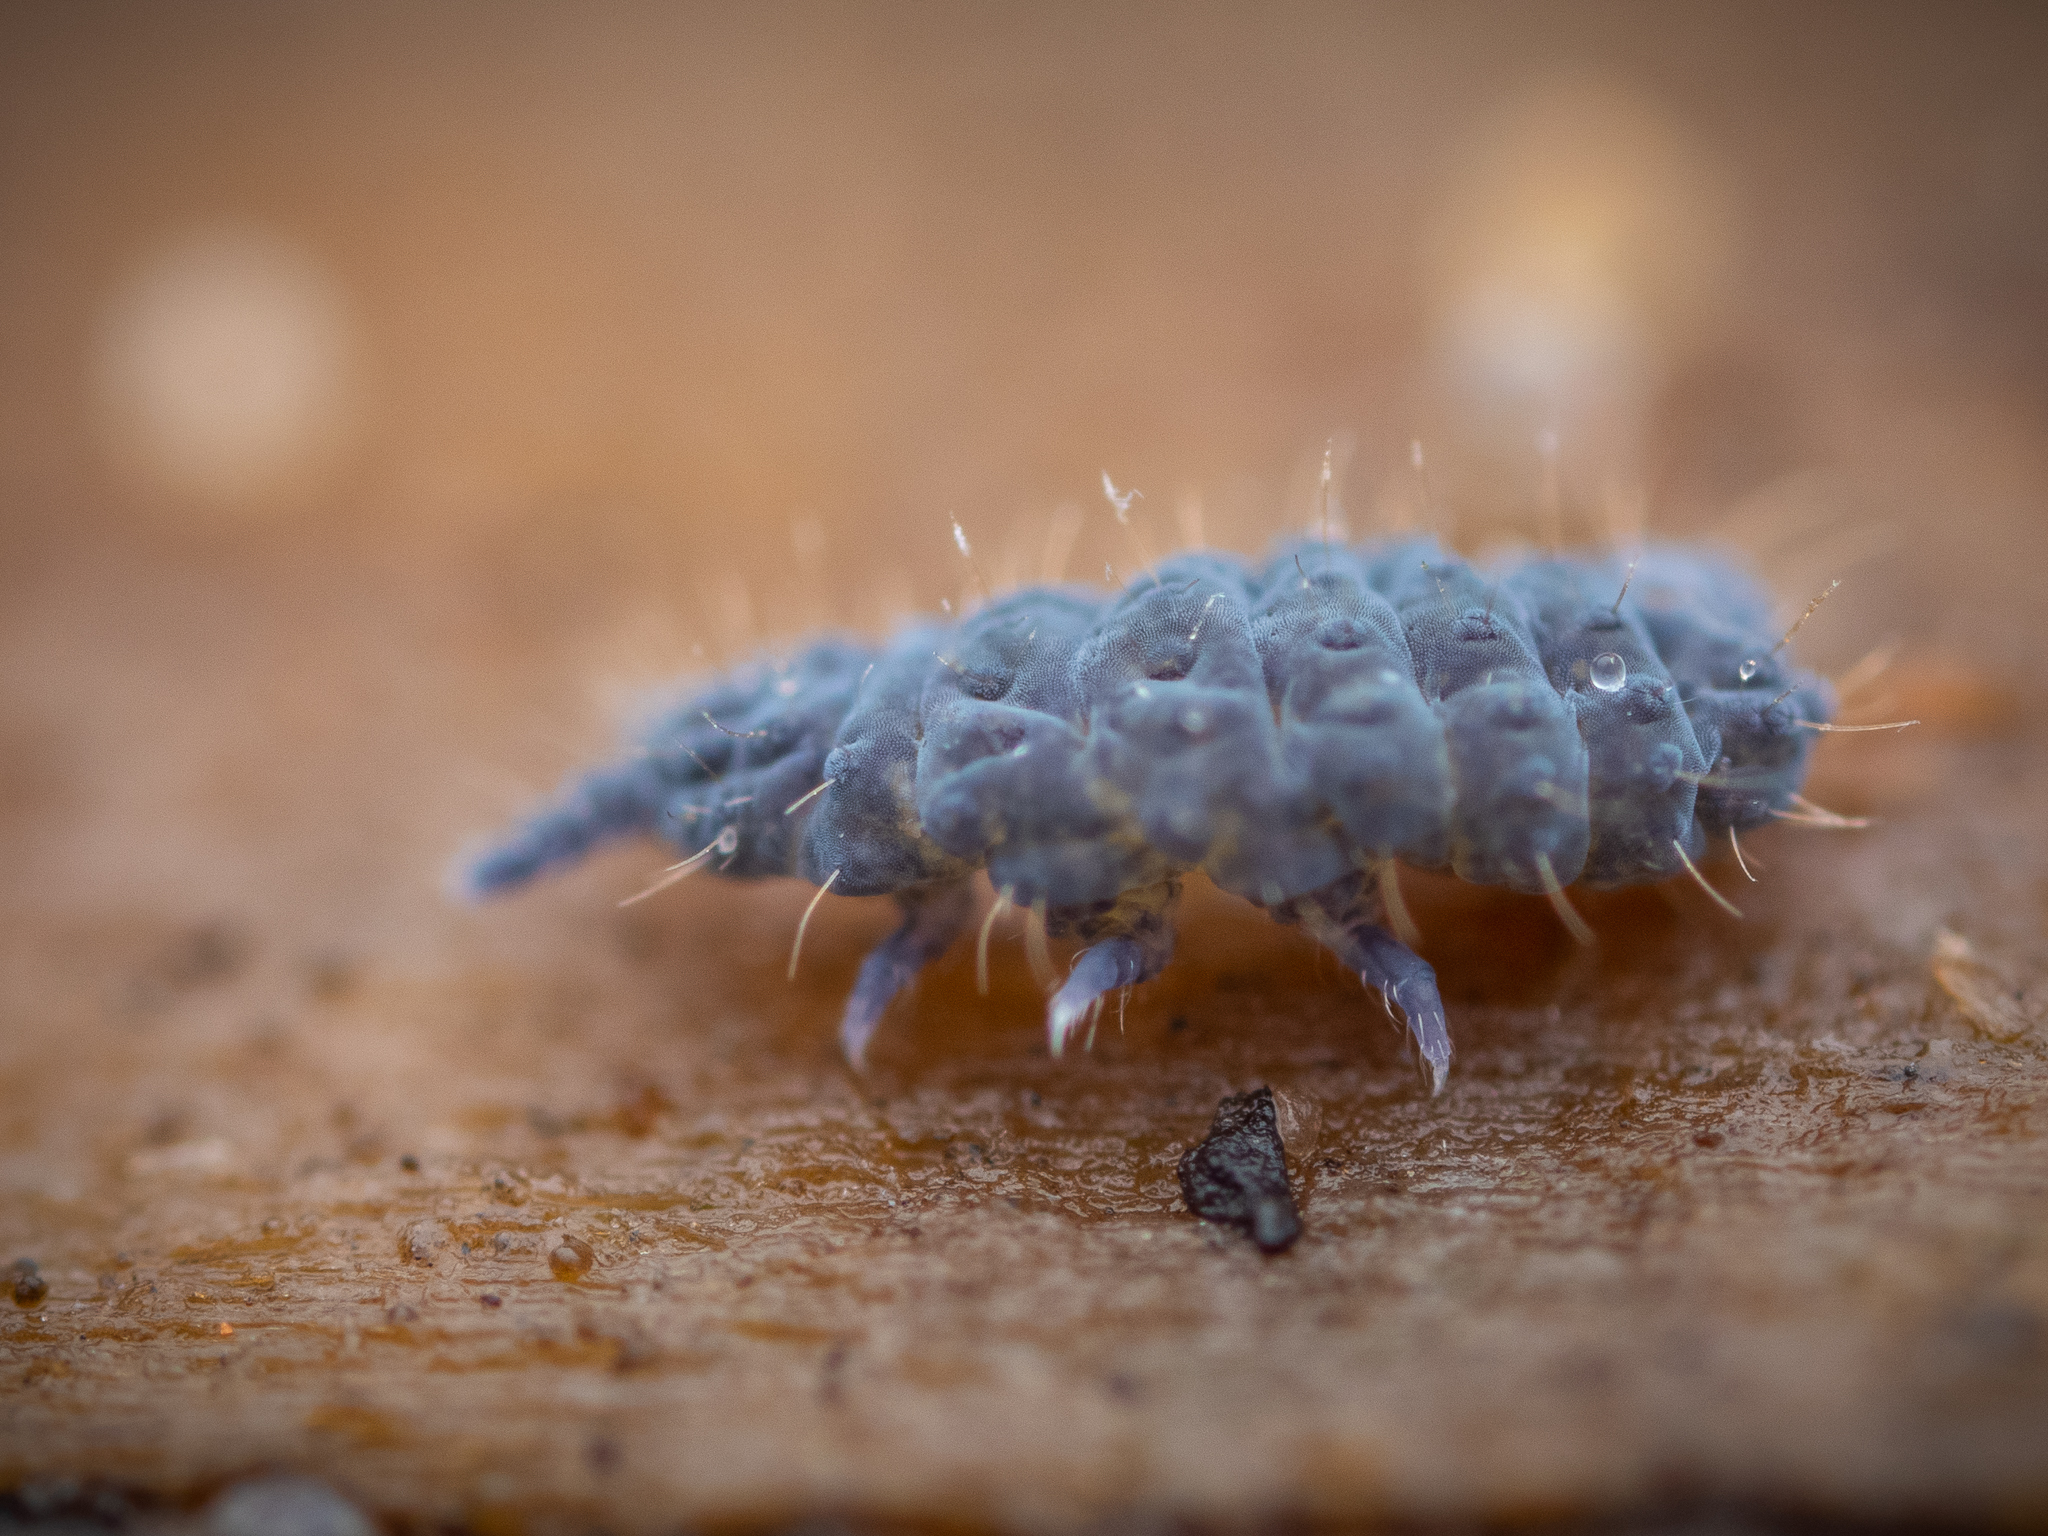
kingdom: Animalia
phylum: Arthropoda
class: Collembola
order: Poduromorpha
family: Neanuridae
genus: Neanura
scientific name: Neanura muscorum
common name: Springtail
